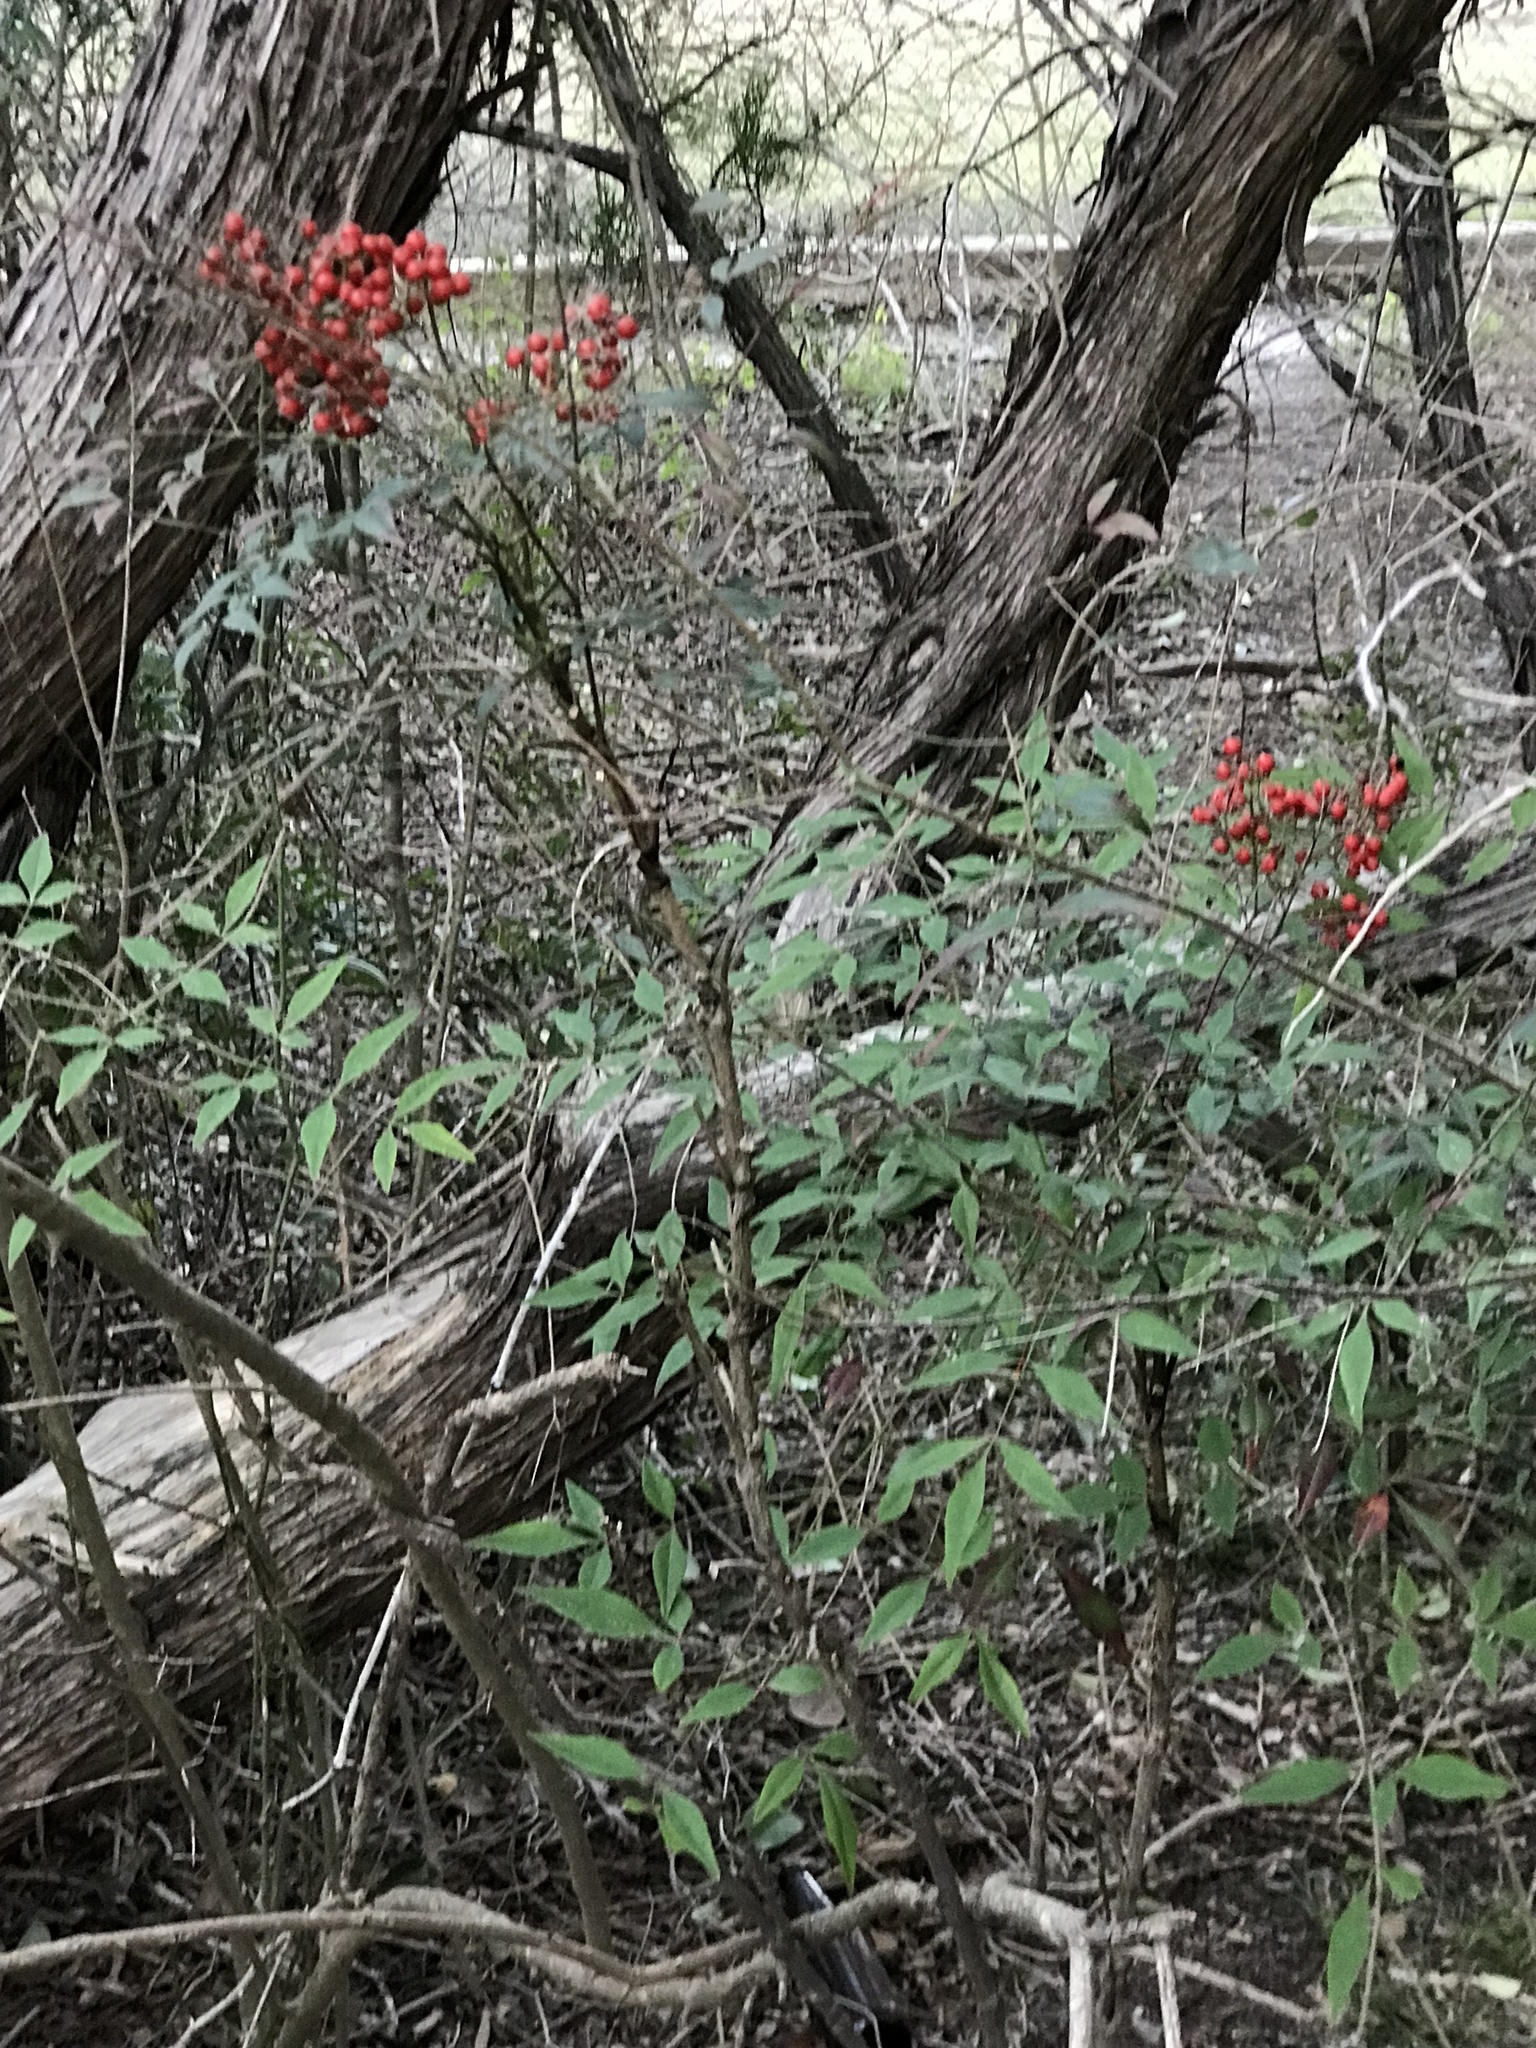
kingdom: Plantae
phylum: Tracheophyta
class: Magnoliopsida
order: Ranunculales
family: Berberidaceae
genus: Nandina
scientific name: Nandina domestica
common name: Sacred bamboo
